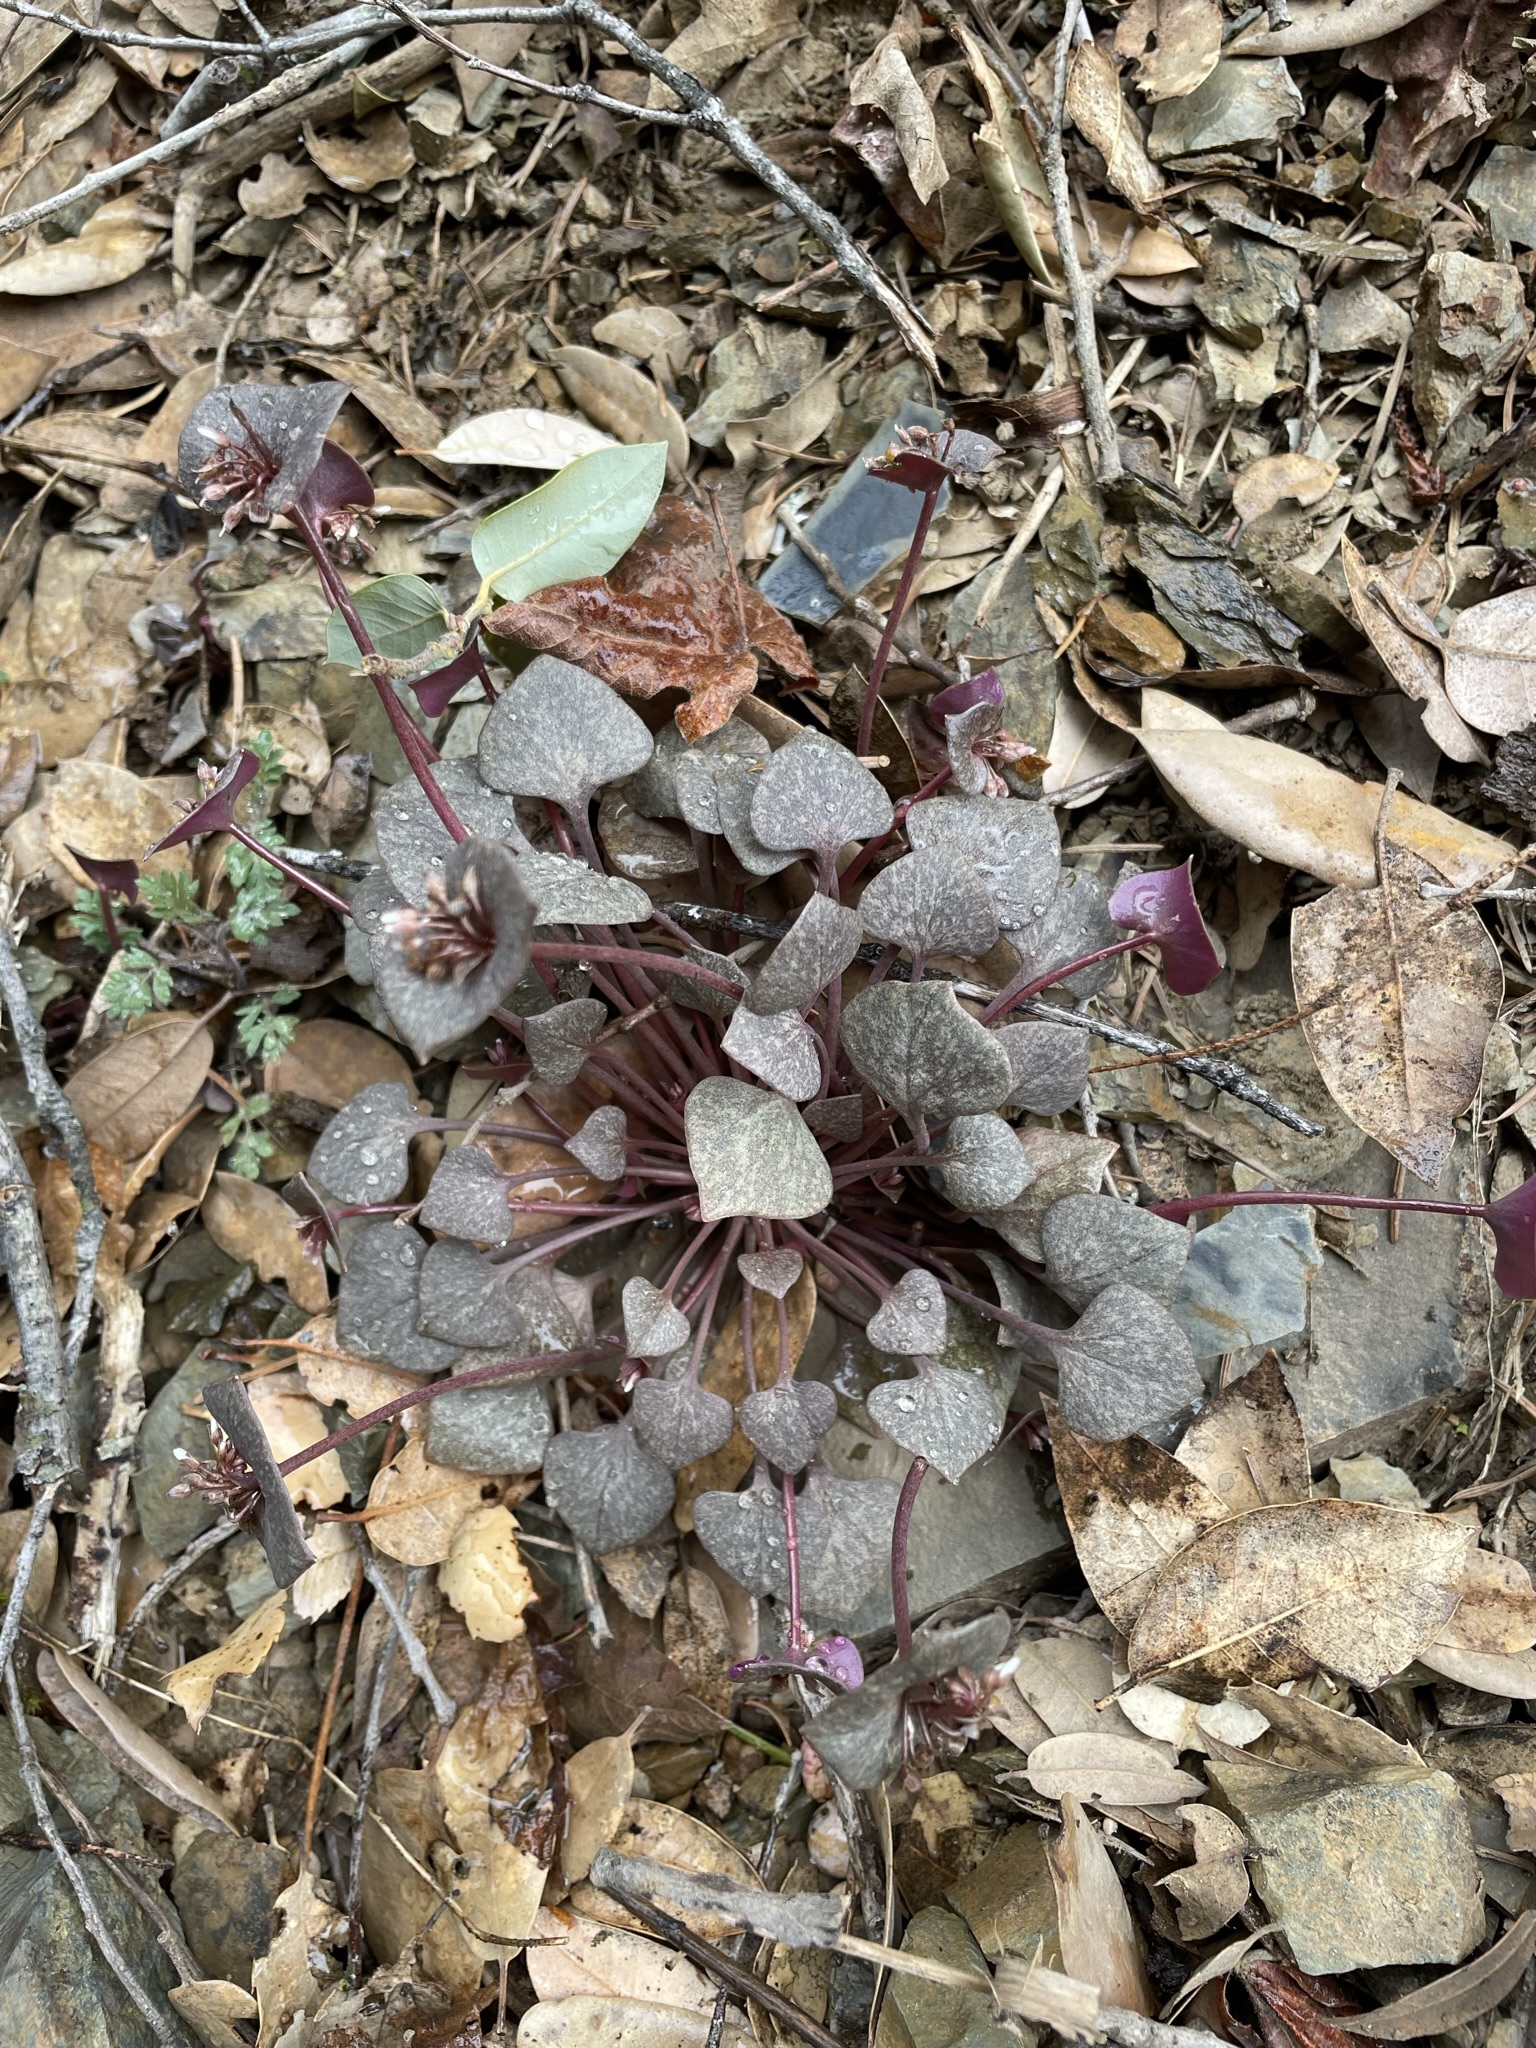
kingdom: Plantae
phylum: Tracheophyta
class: Magnoliopsida
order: Caryophyllales
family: Montiaceae
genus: Claytonia
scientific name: Claytonia rubra
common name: Erubescent miner's-lettuce
